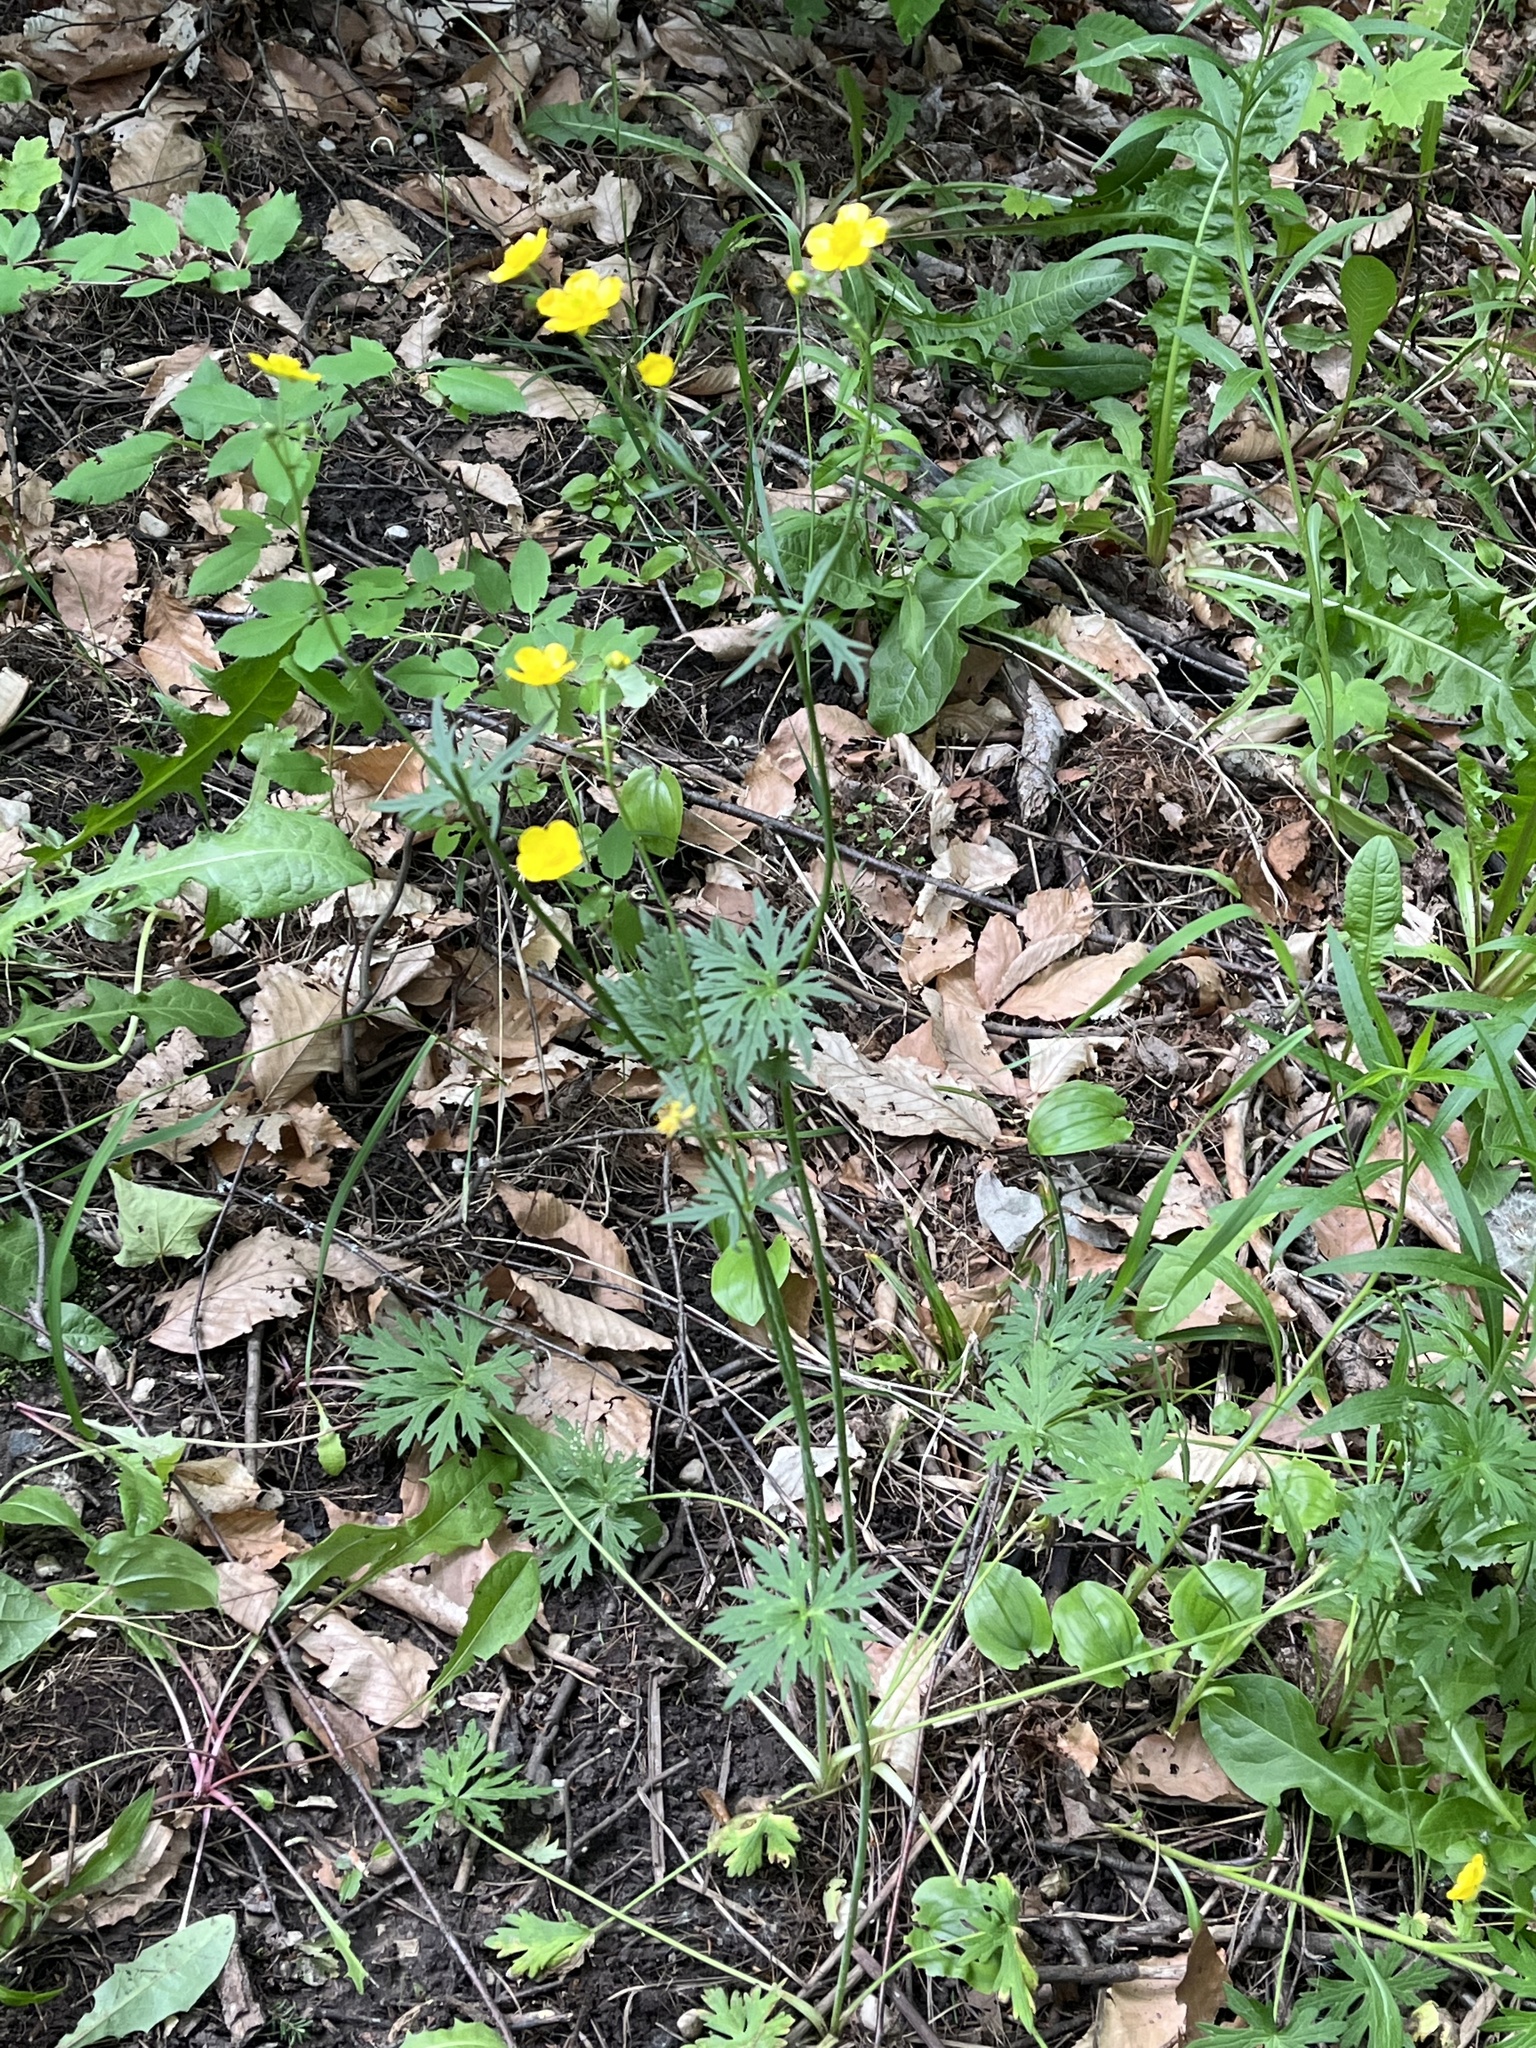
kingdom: Plantae
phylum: Tracheophyta
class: Magnoliopsida
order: Ranunculales
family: Ranunculaceae
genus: Ranunculus
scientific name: Ranunculus acris
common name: Meadow buttercup
